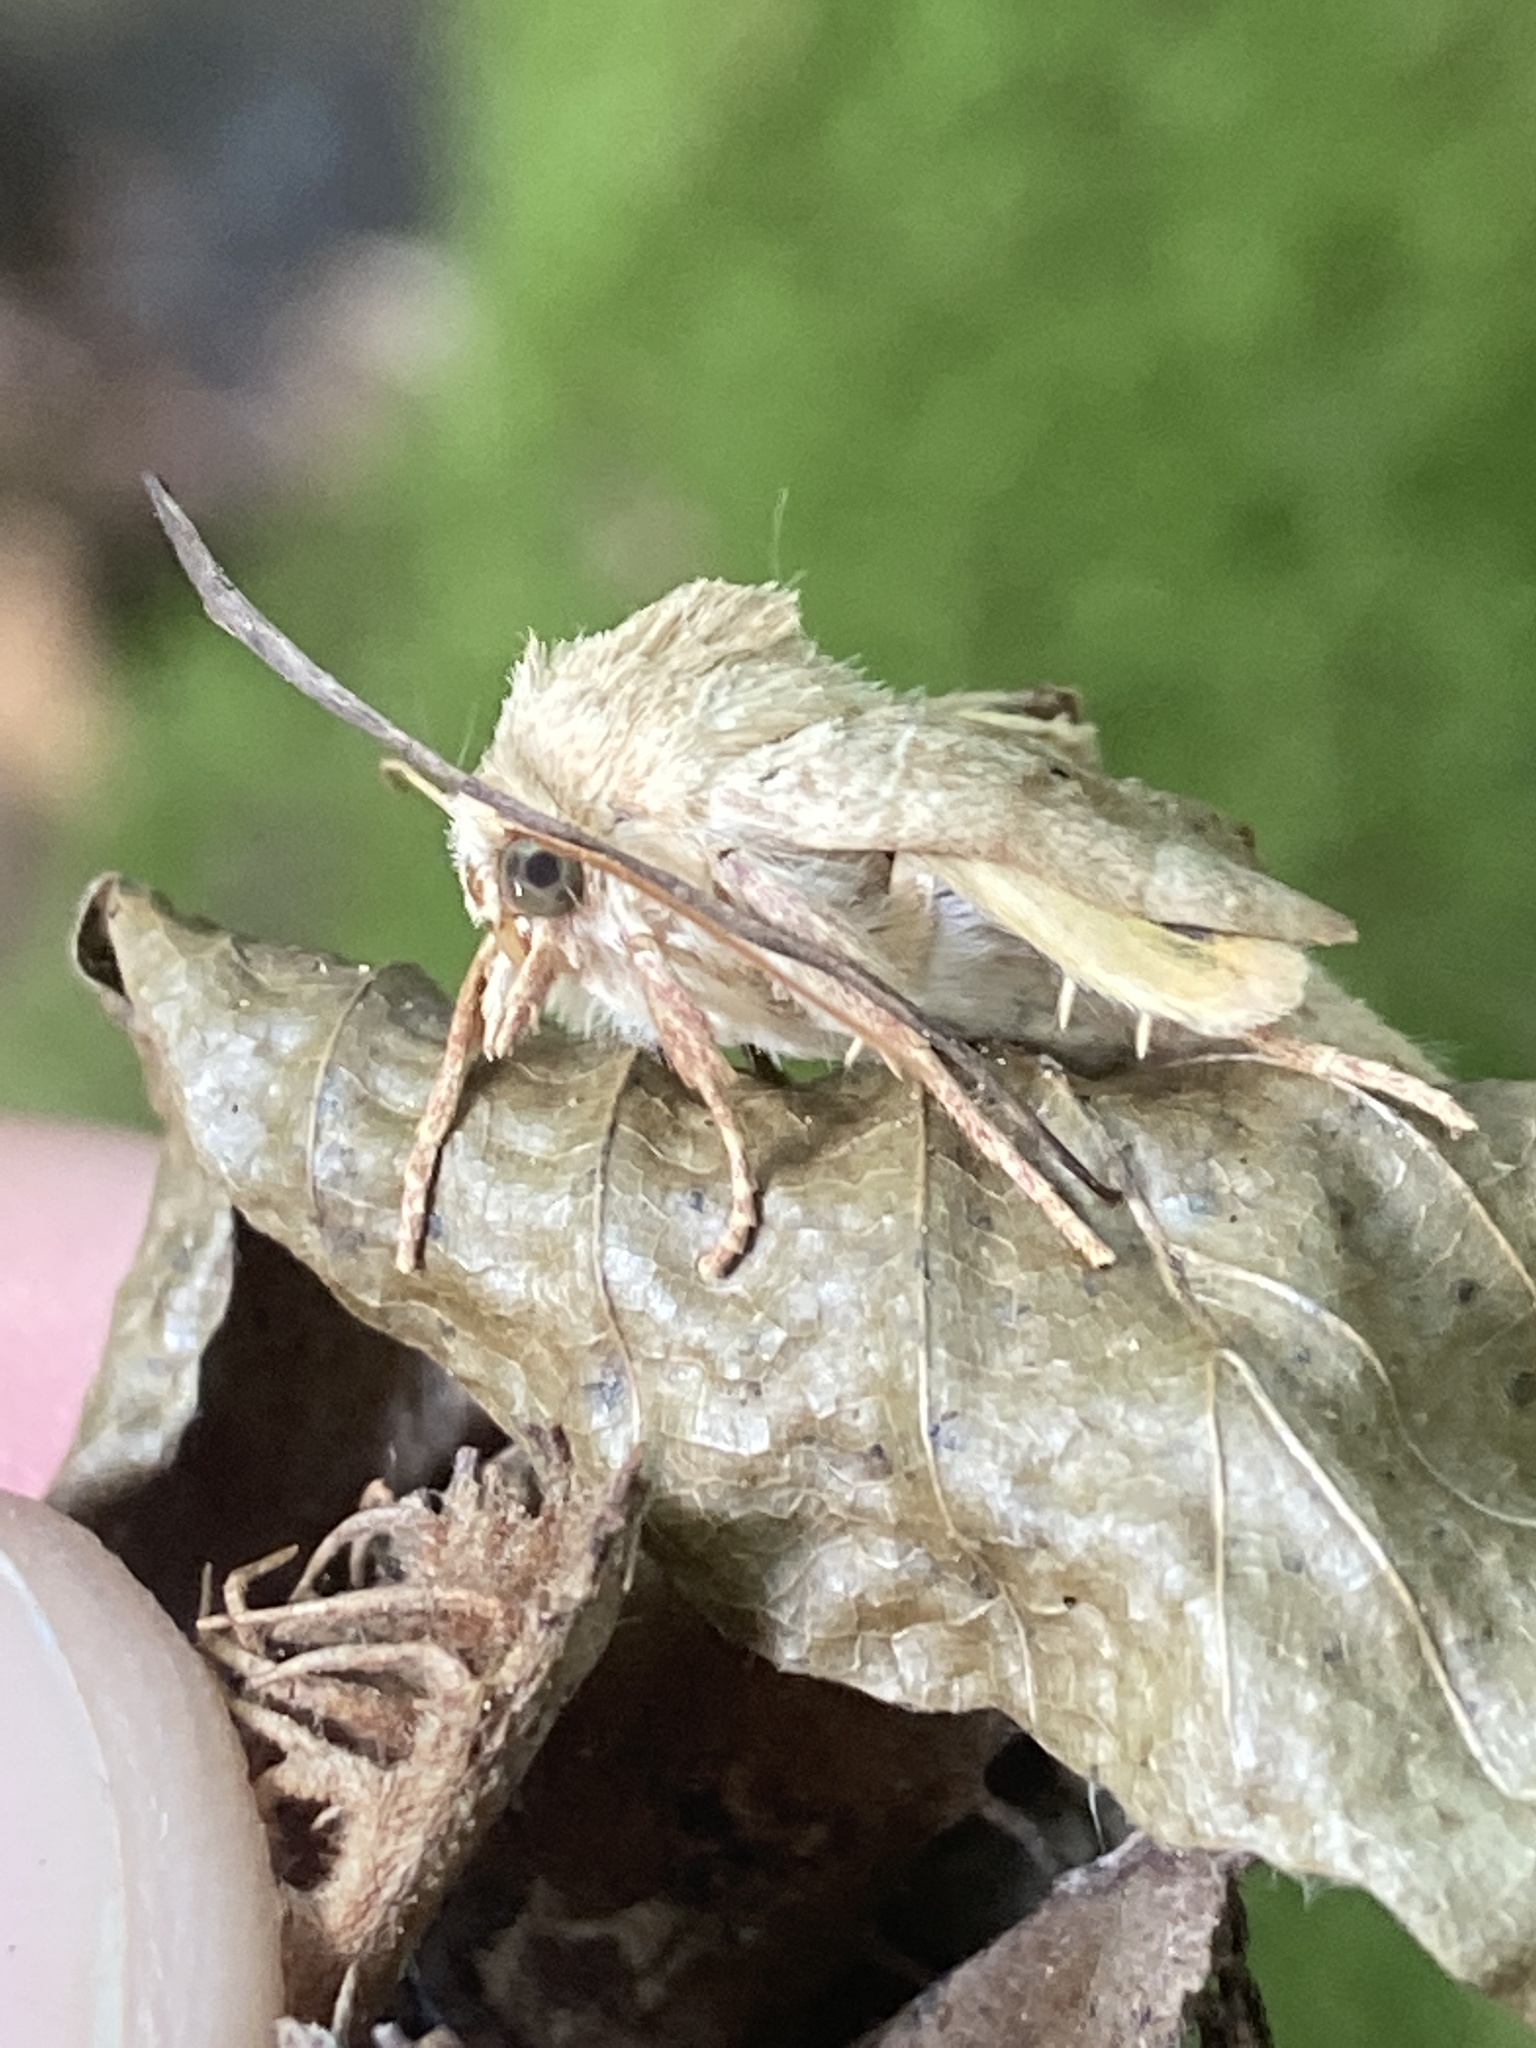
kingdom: Animalia
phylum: Arthropoda
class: Insecta
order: Lepidoptera
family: Noctuidae
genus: Cosmia
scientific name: Cosmia trapezina
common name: Dun-bar
